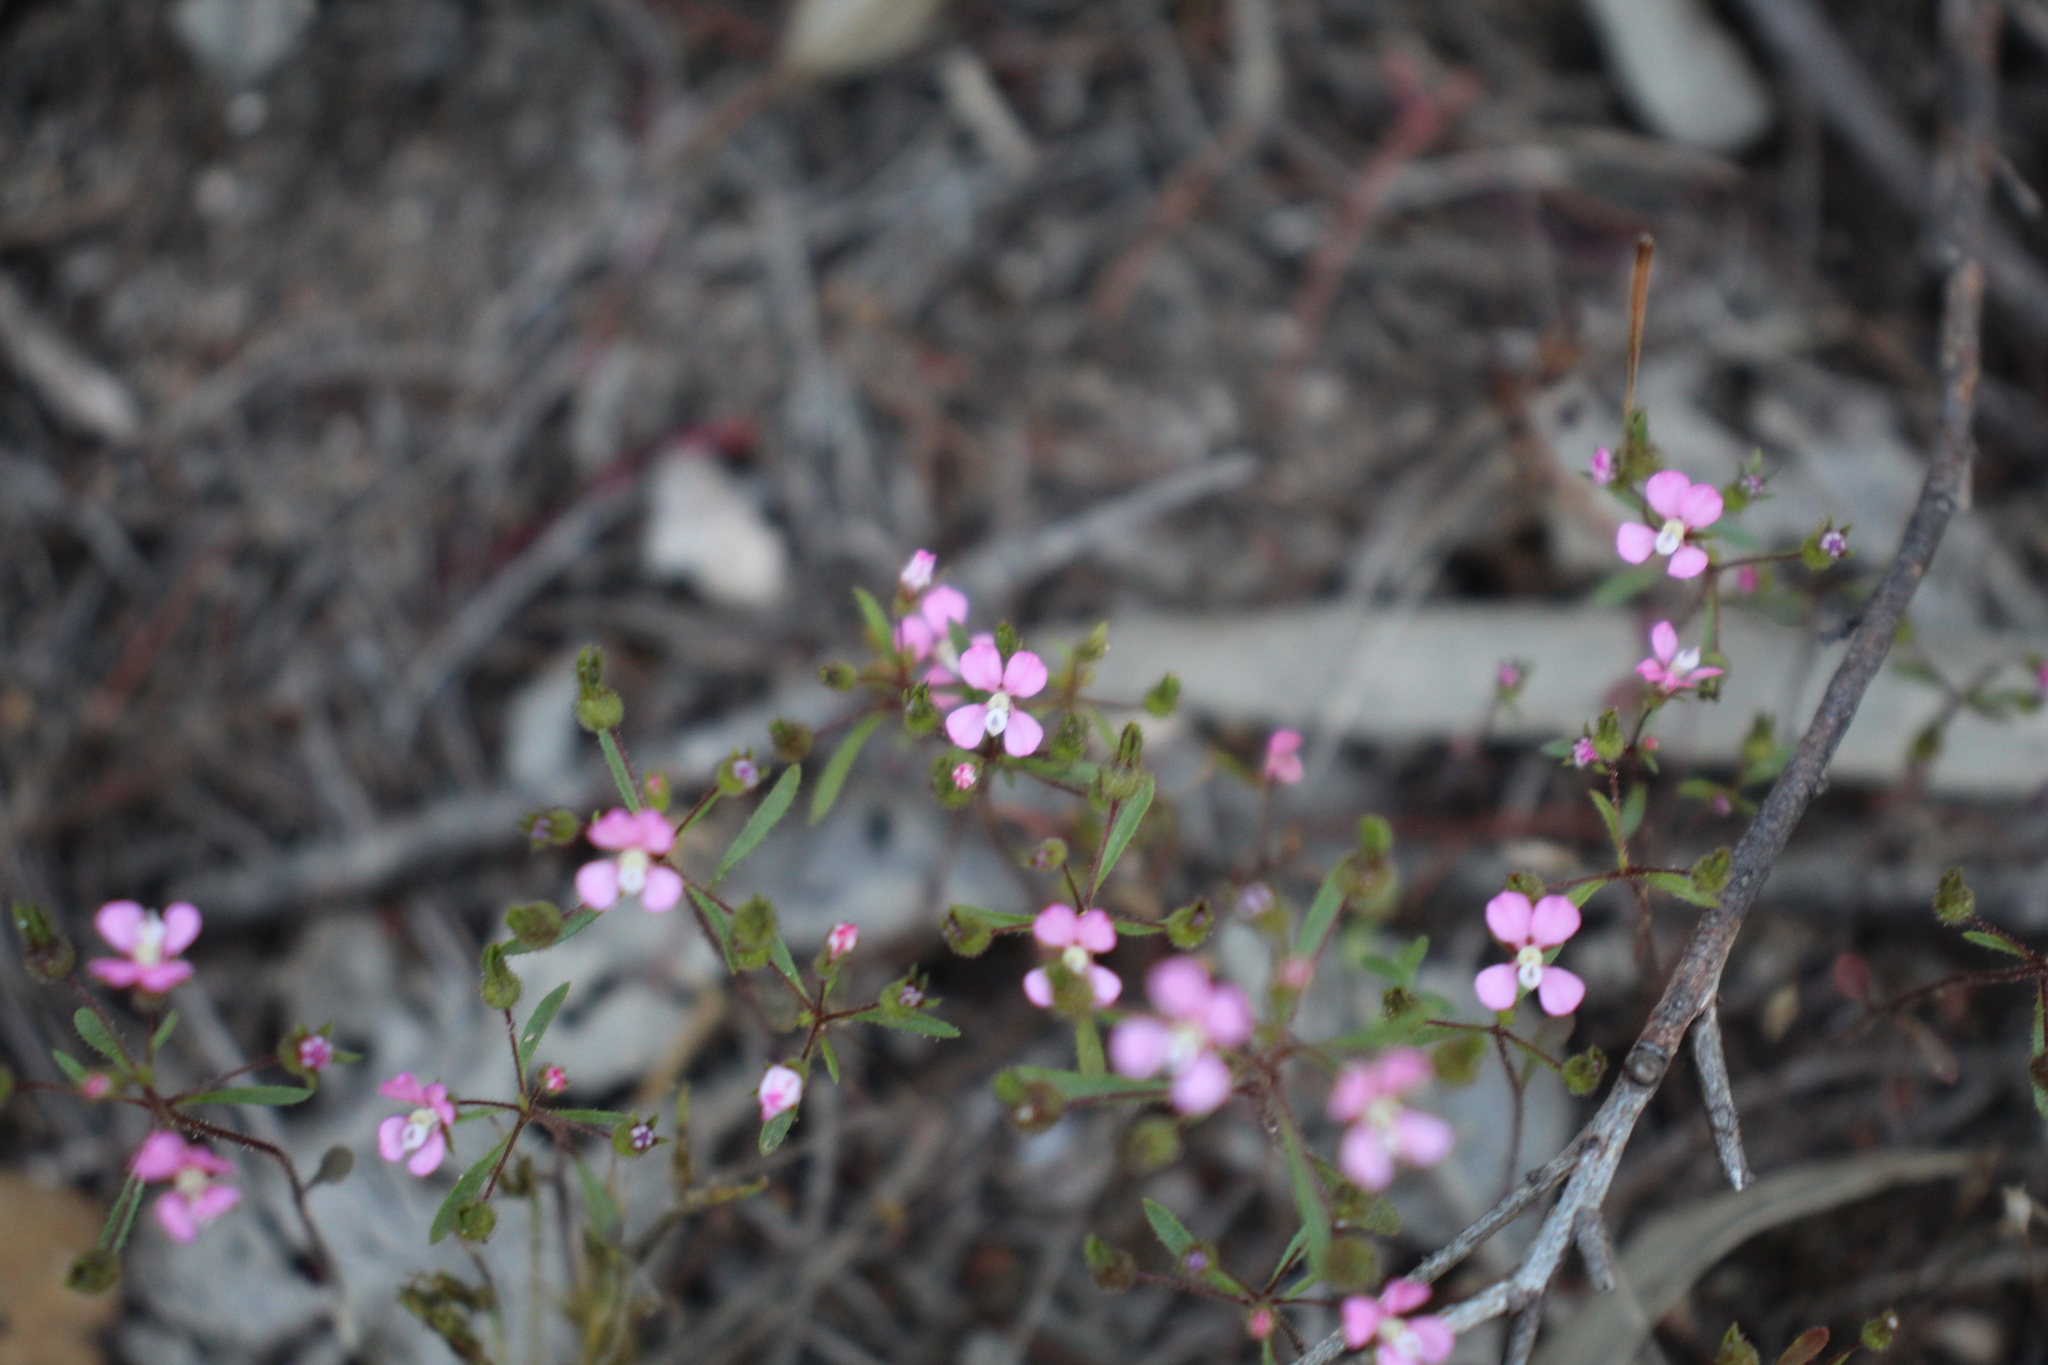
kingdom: Plantae
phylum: Tracheophyta
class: Magnoliopsida
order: Asterales
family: Stylidiaceae
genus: Levenhookia
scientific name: Levenhookia stipitata
